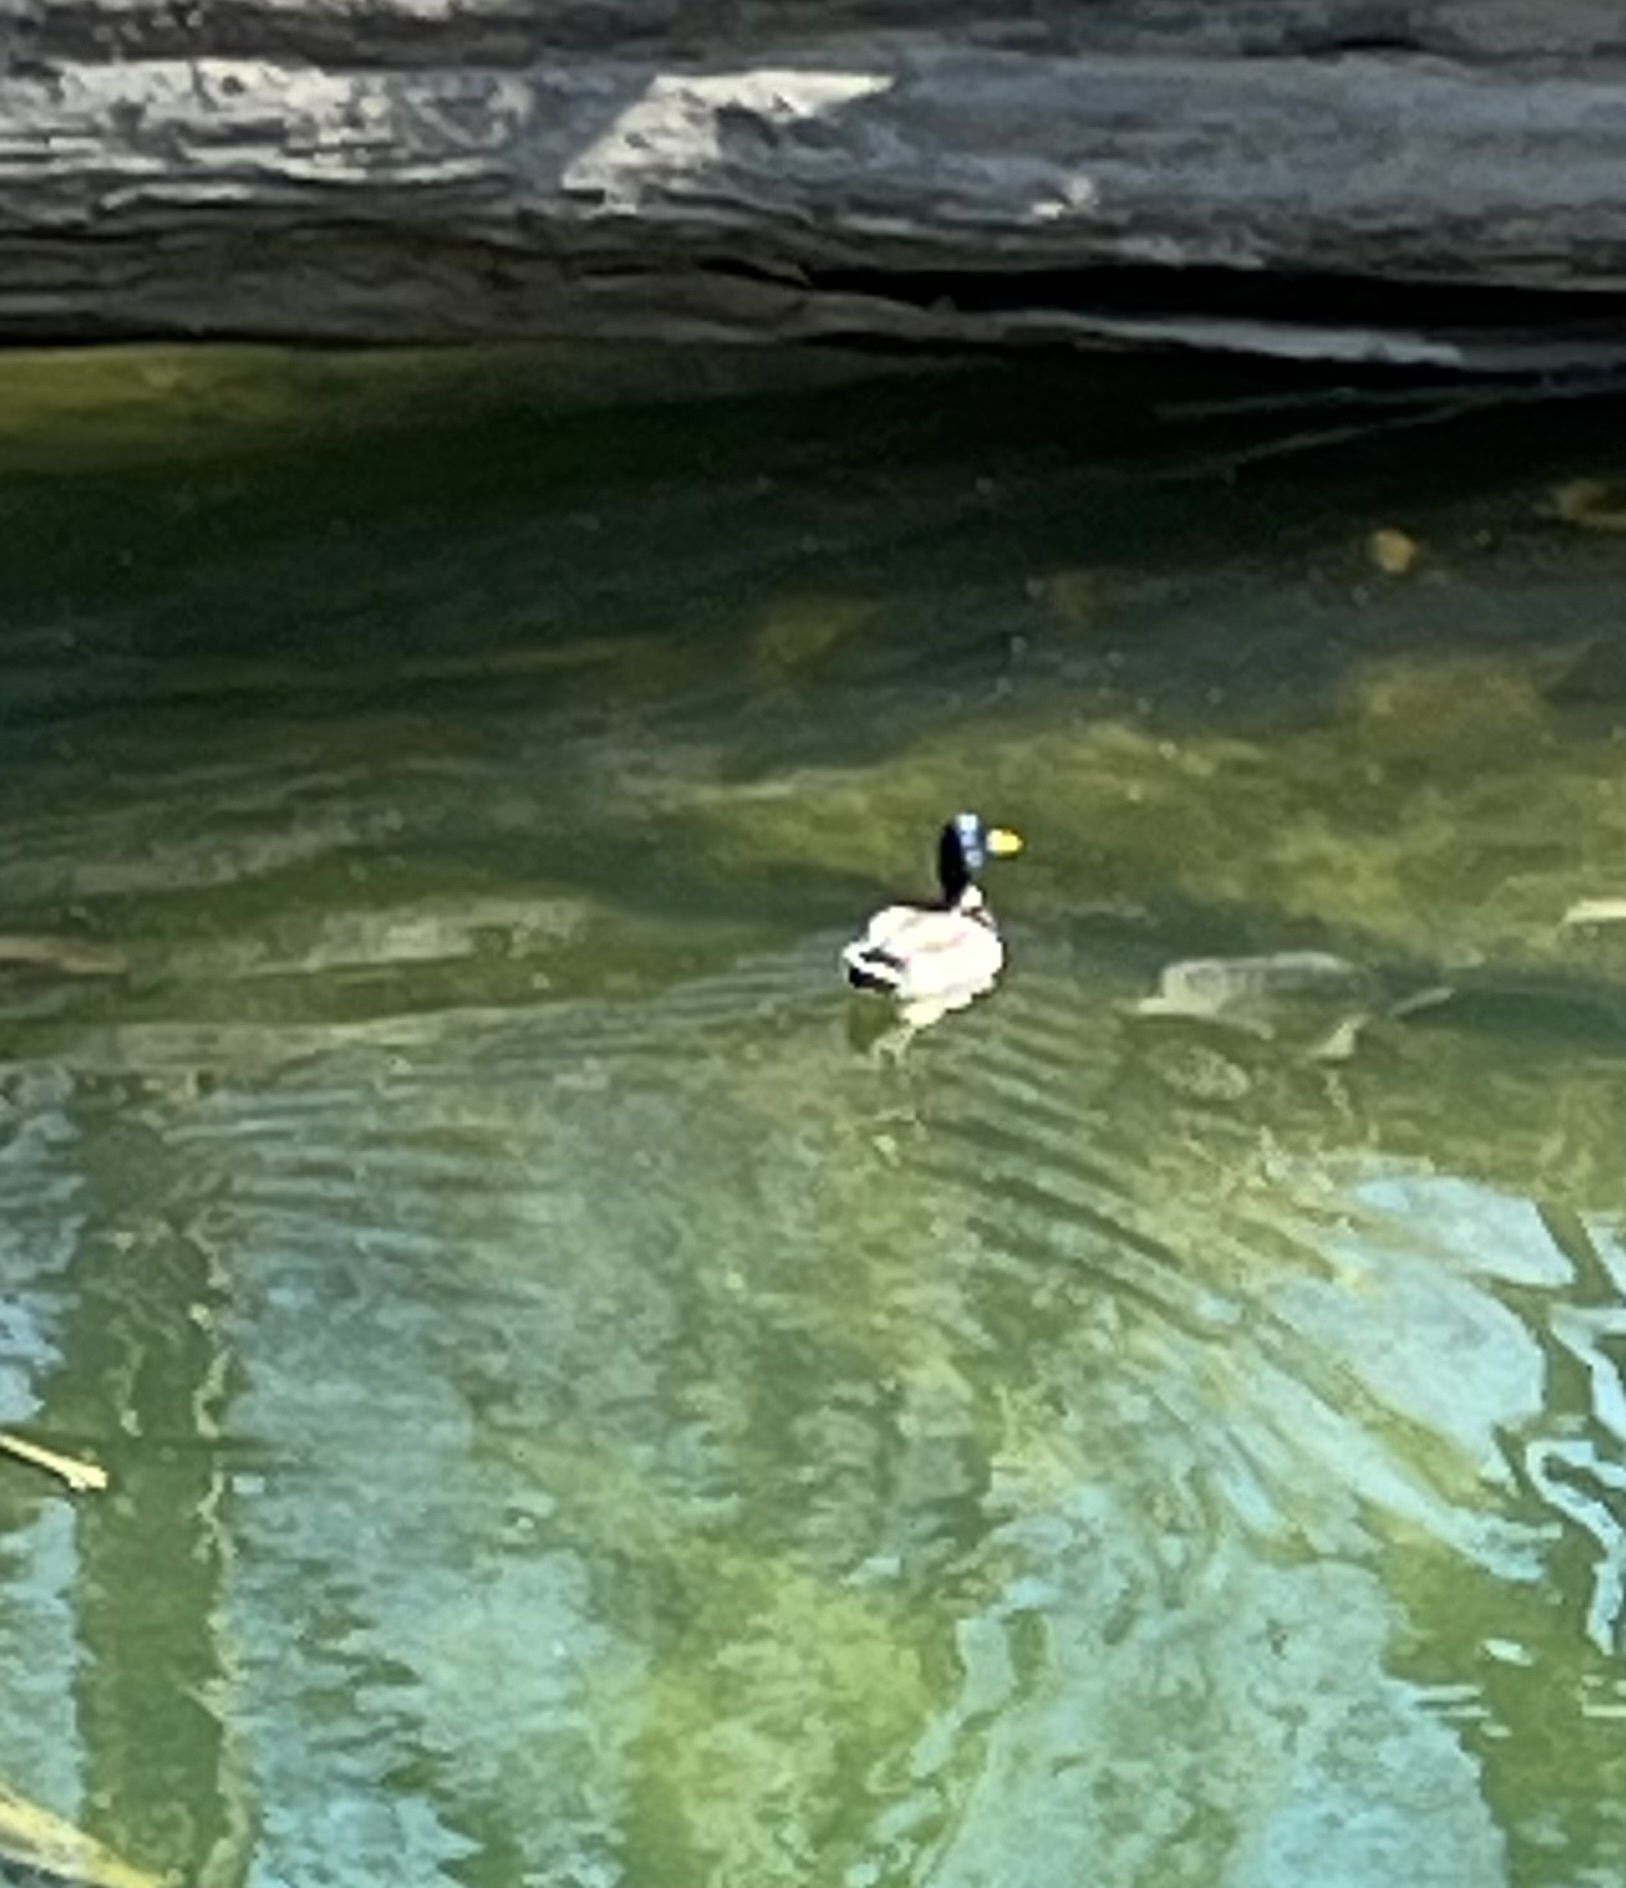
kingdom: Animalia
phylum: Chordata
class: Aves
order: Anseriformes
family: Anatidae
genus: Anas
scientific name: Anas platyrhynchos
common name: Mallard
